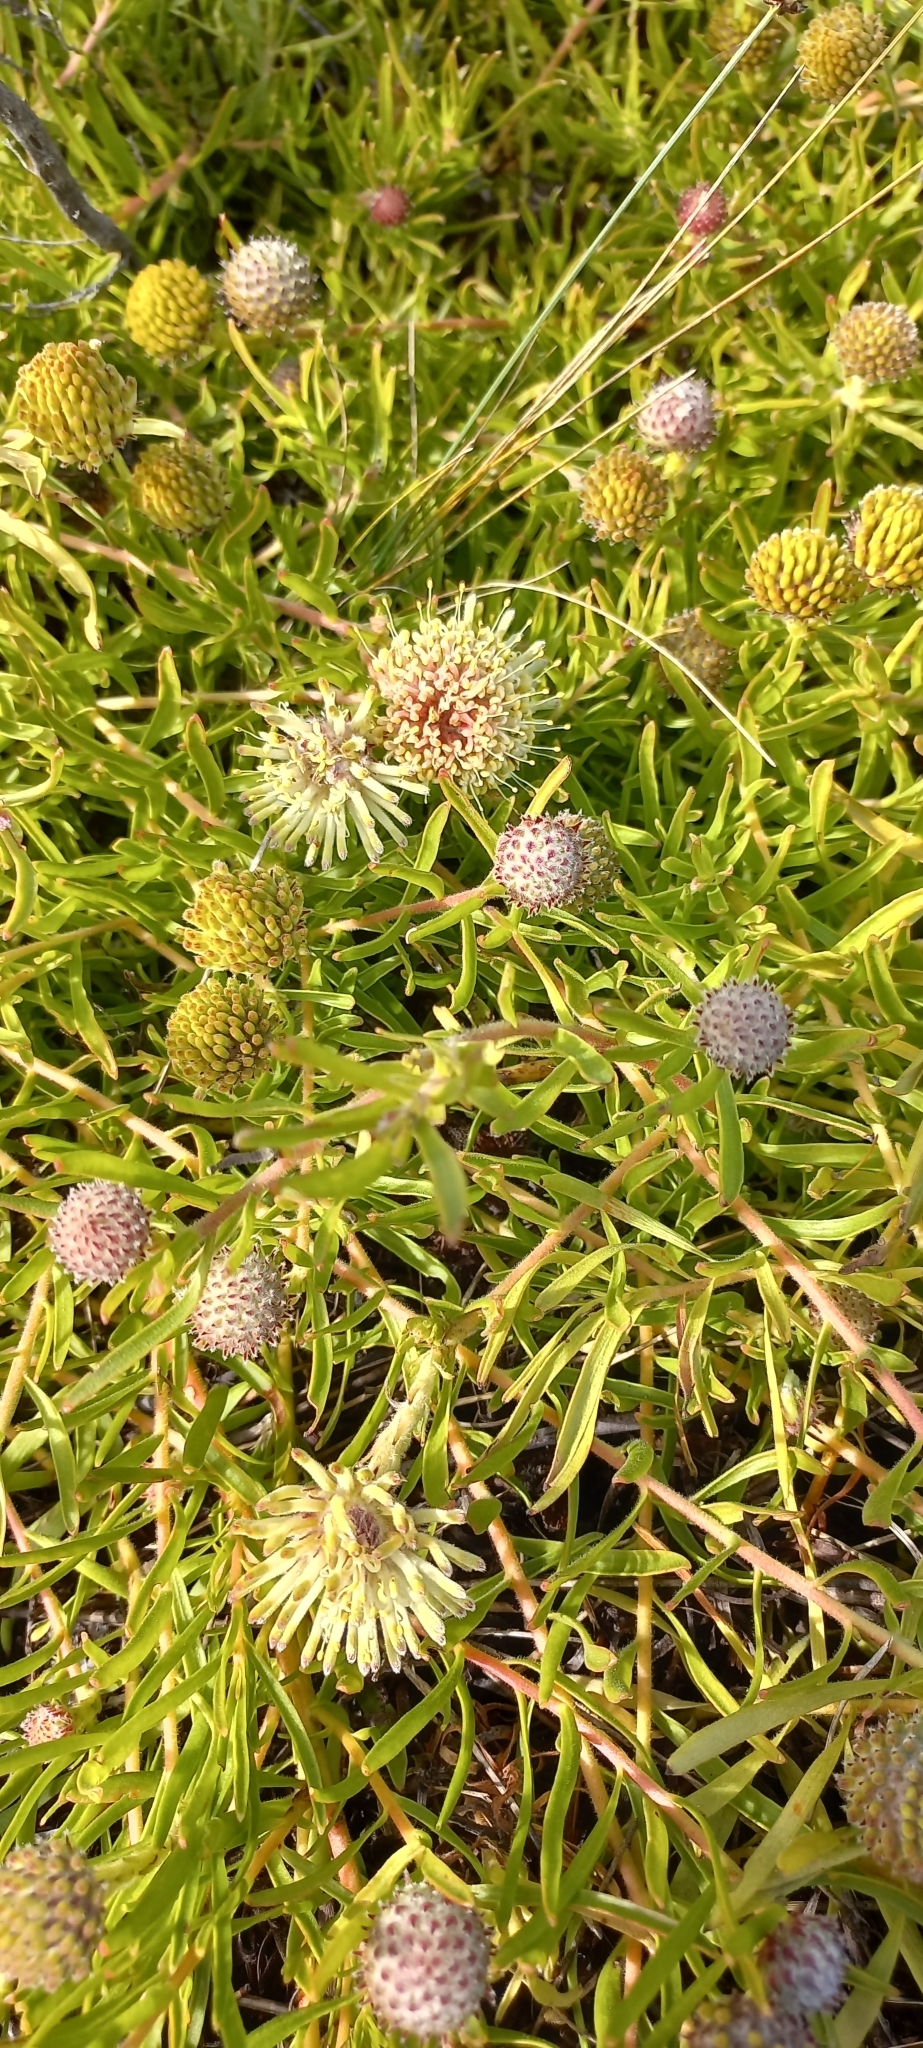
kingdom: Plantae
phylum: Tracheophyta
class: Magnoliopsida
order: Proteales
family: Proteaceae
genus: Leucospermum
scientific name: Leucospermum pedunculatum
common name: White-trailing pincushion
